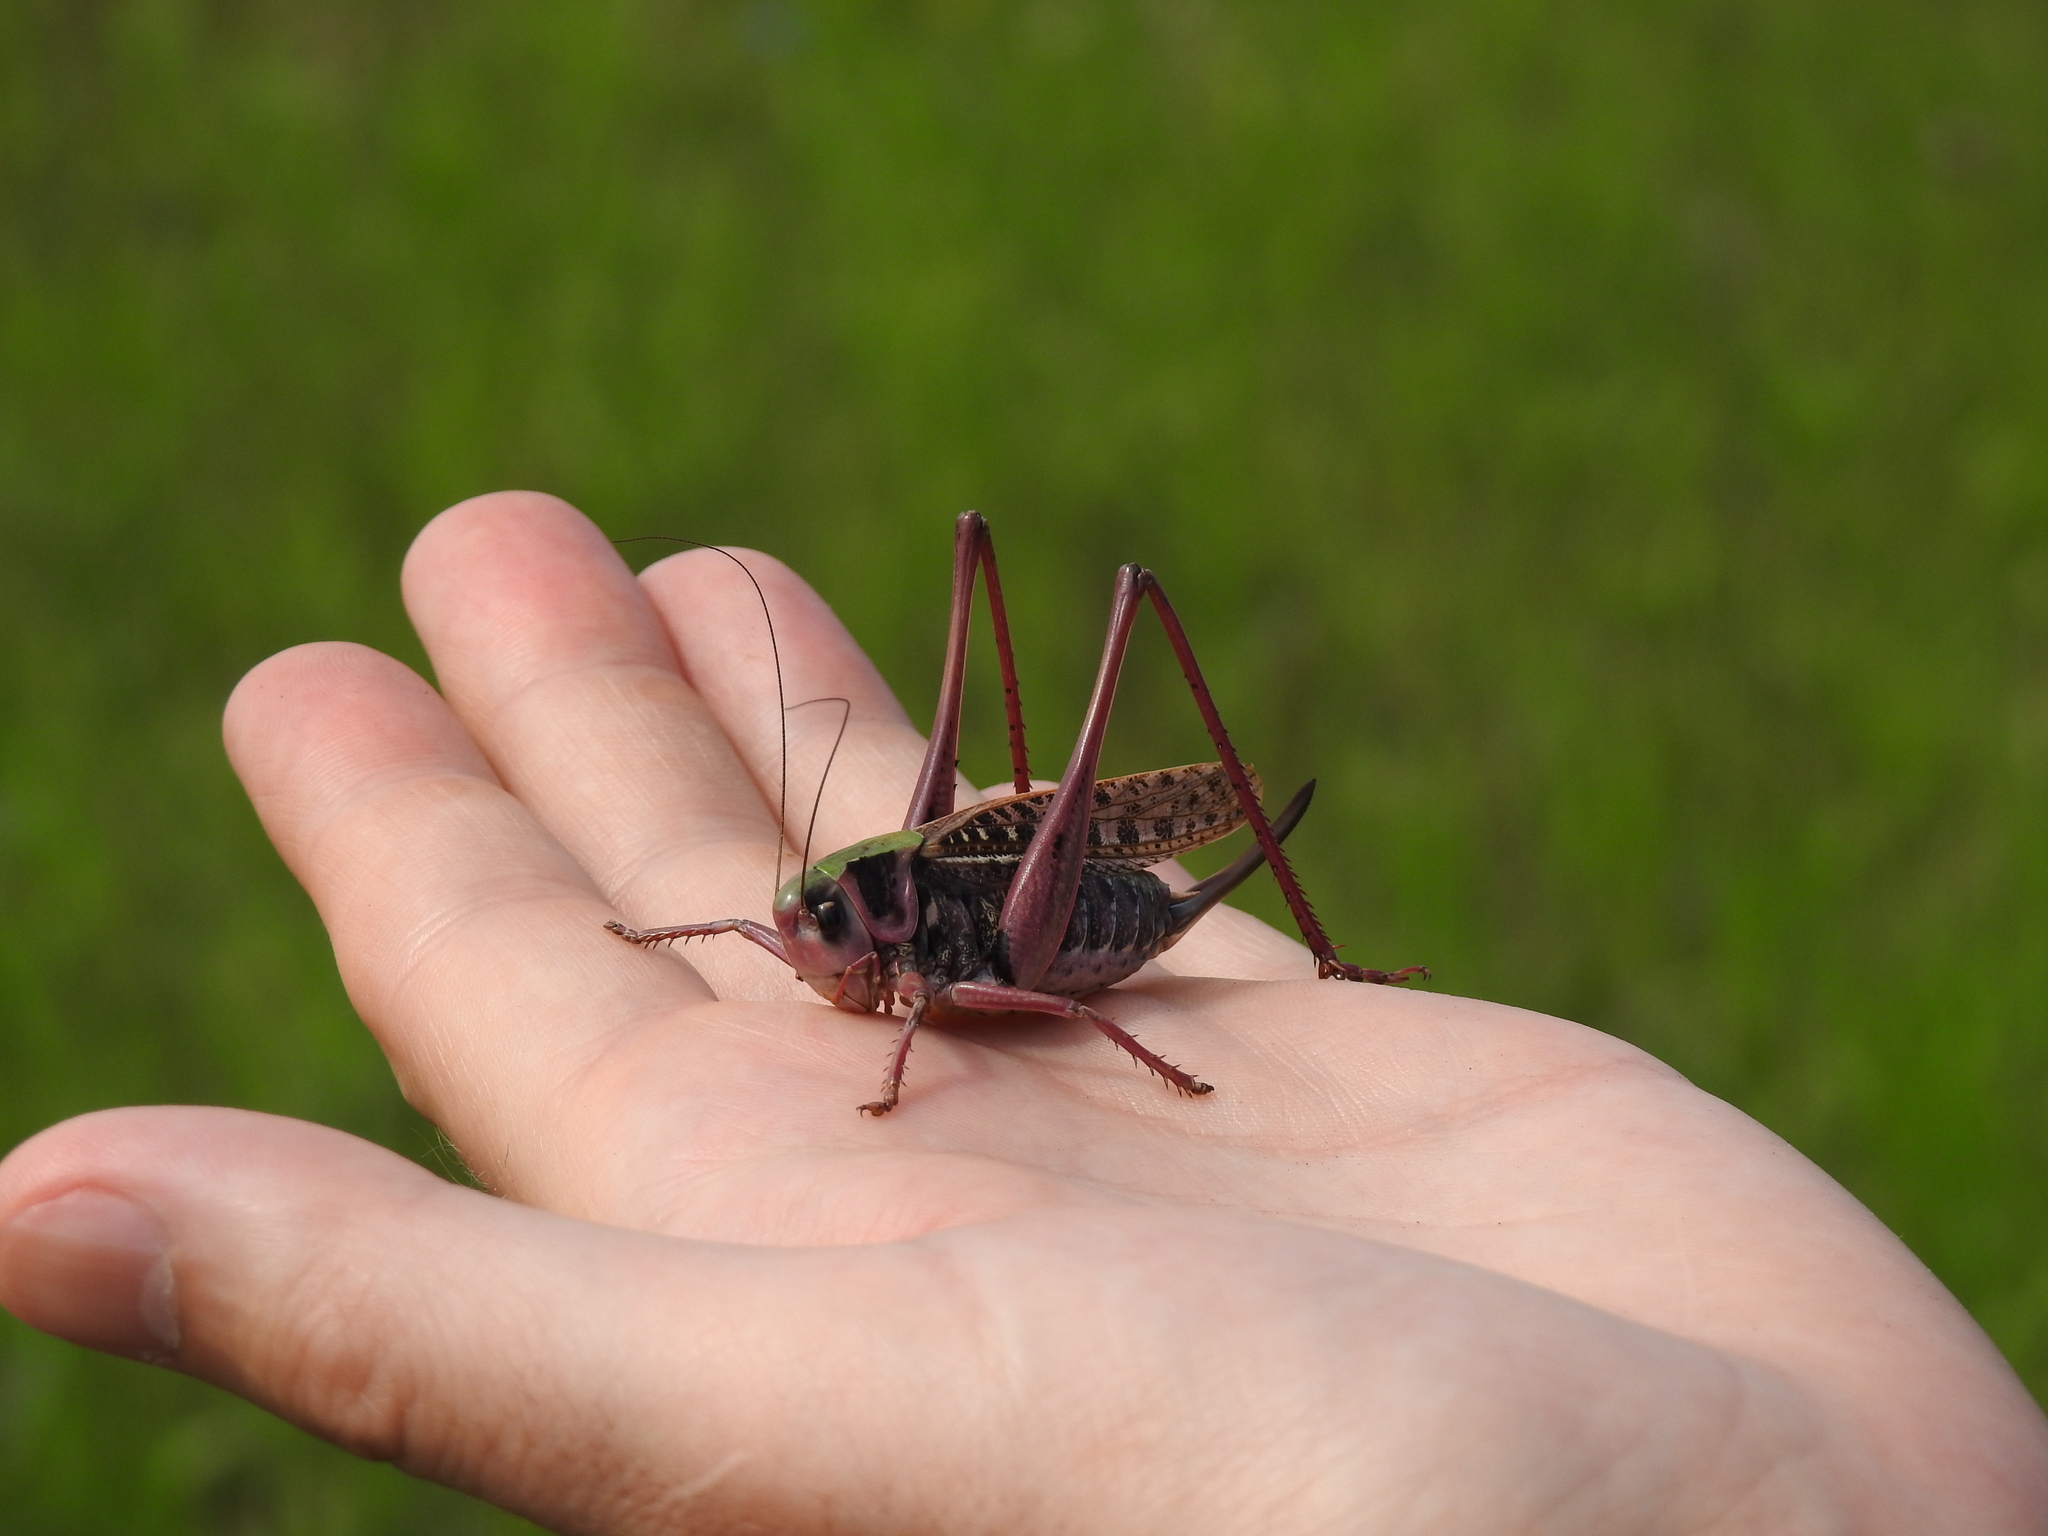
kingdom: Animalia
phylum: Arthropoda
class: Insecta
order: Orthoptera
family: Tettigoniidae
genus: Decticus
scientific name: Decticus verrucivorus
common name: Wart-biter
